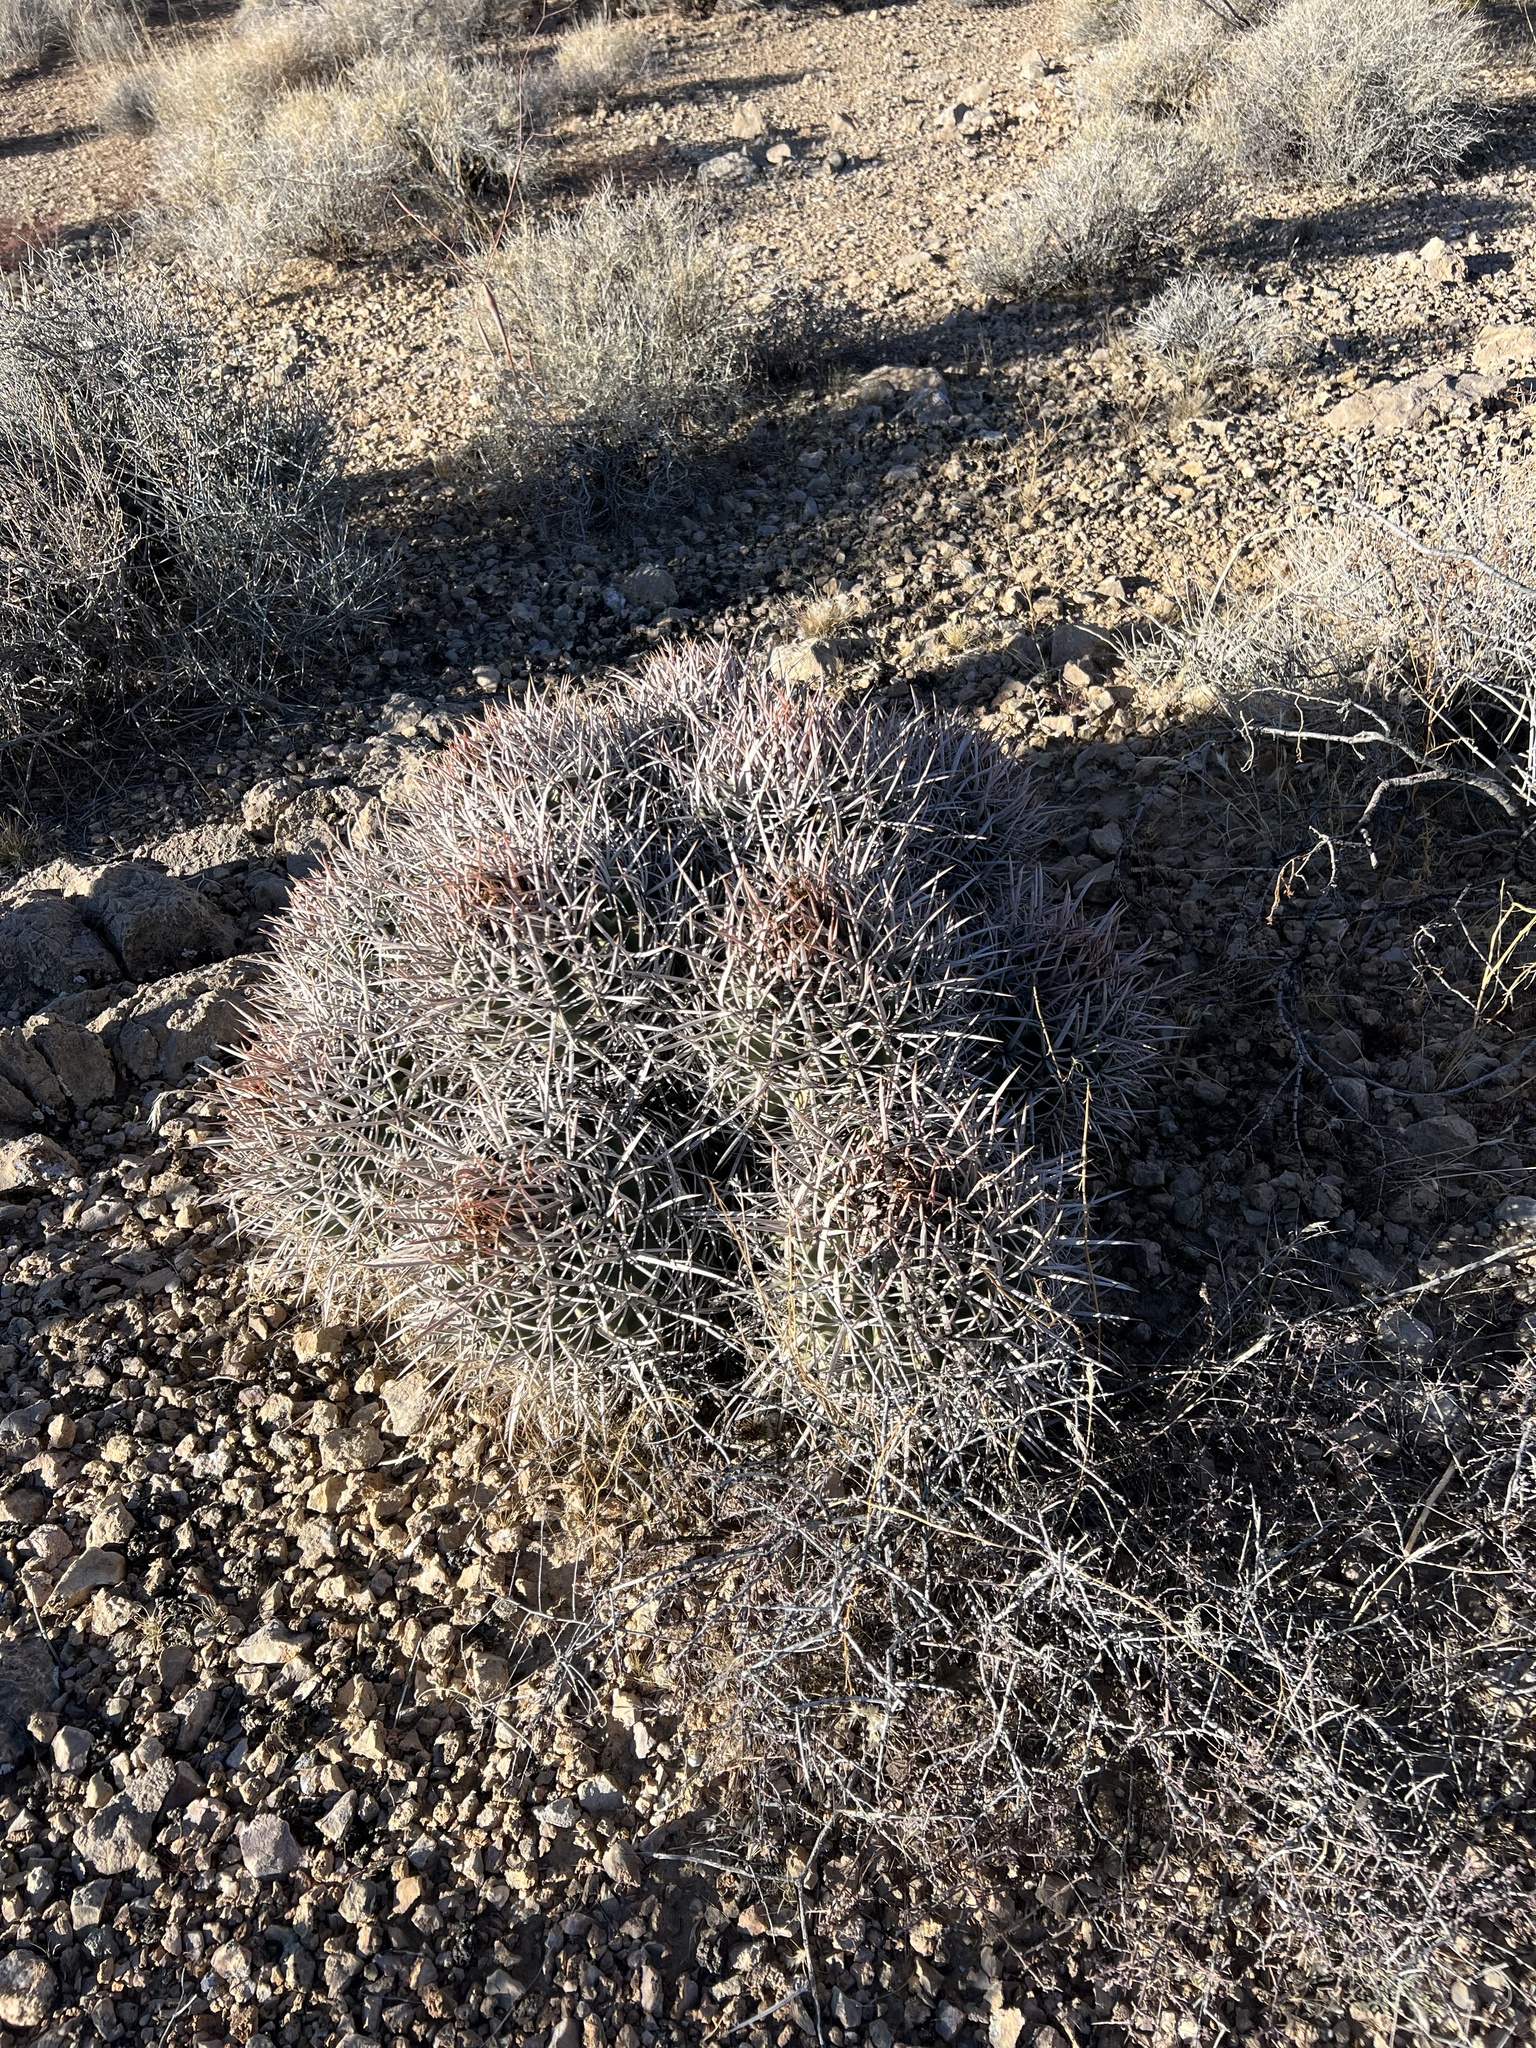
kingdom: Plantae
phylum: Tracheophyta
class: Magnoliopsida
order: Caryophyllales
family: Cactaceae
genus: Echinocactus
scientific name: Echinocactus polycephalus
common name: Cottontop cactus
